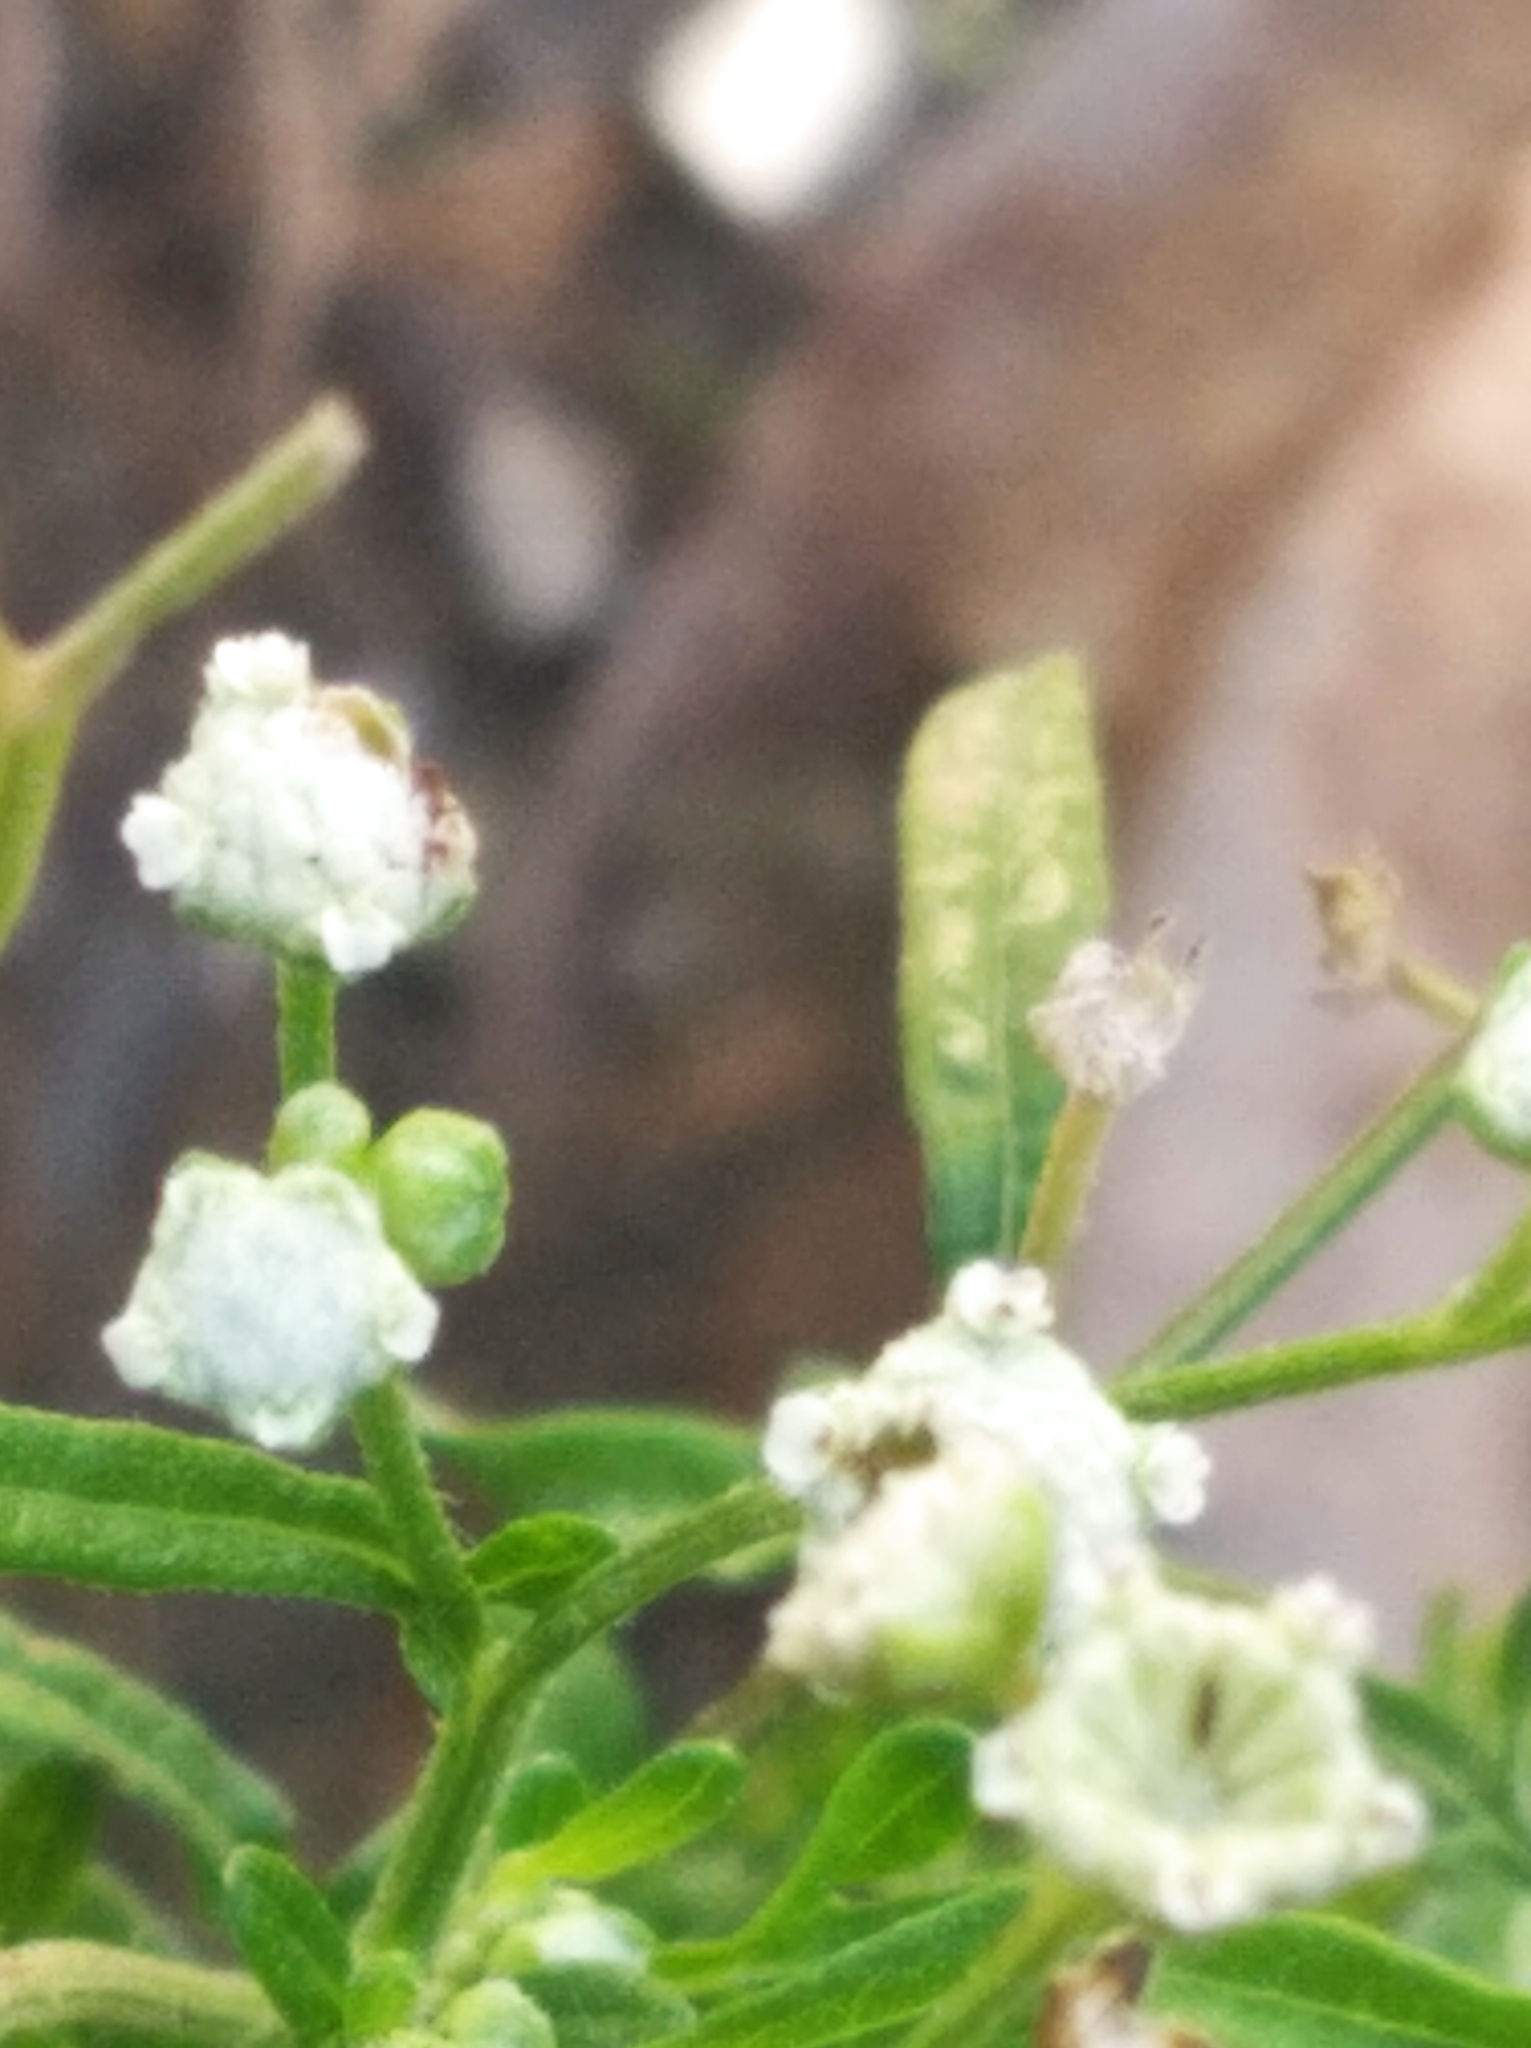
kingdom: Plantae
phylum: Tracheophyta
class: Magnoliopsida
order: Asterales
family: Asteraceae
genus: Parthenium
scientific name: Parthenium hysterophorus
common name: Santa maria feverfew
